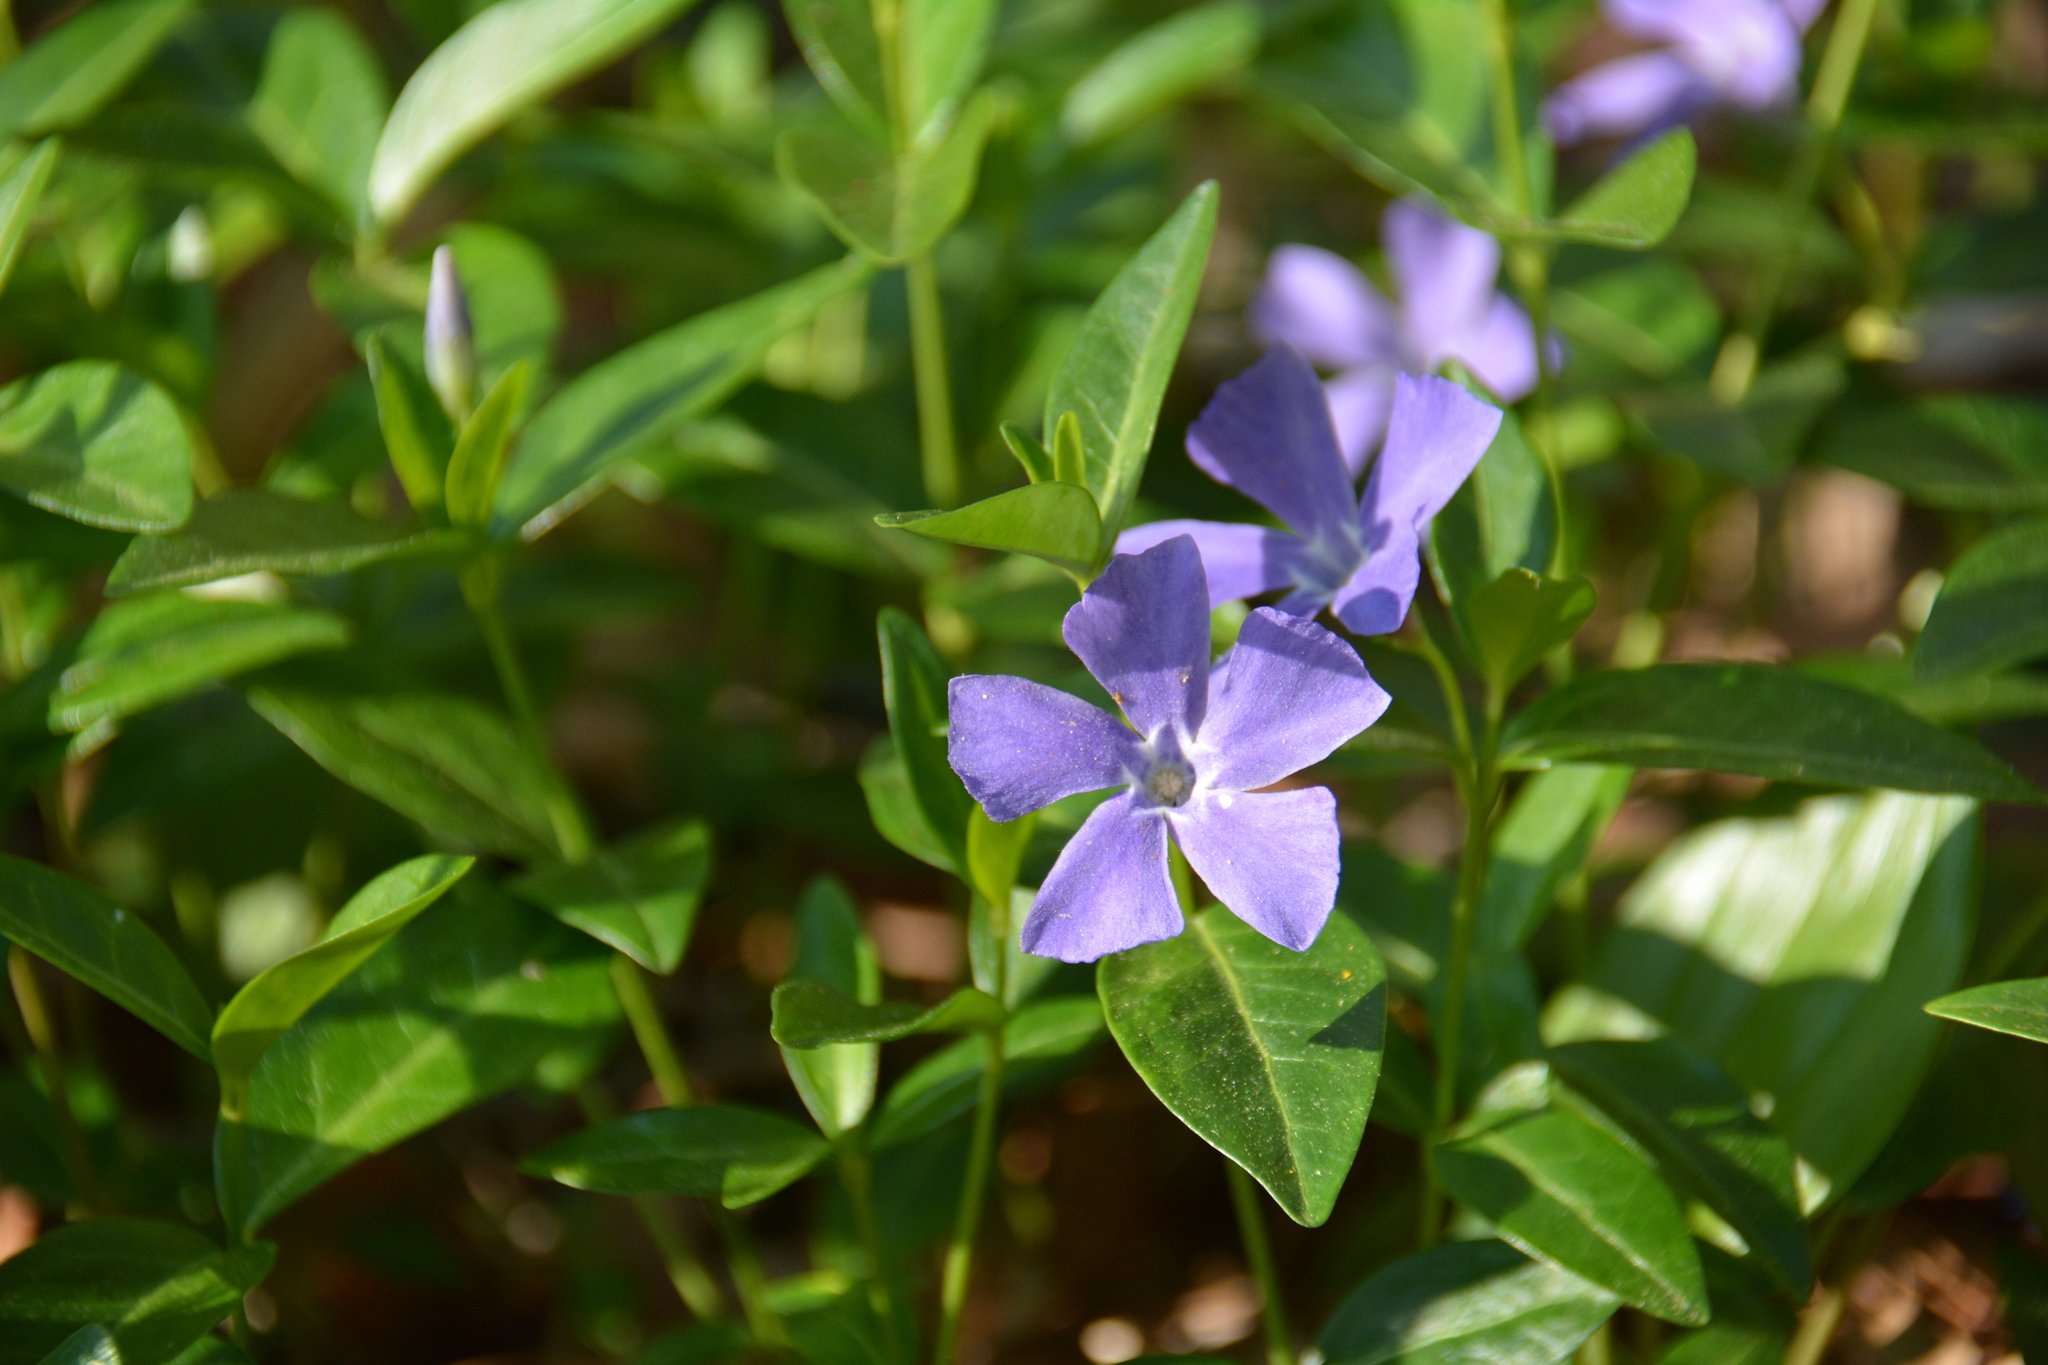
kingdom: Plantae
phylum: Tracheophyta
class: Magnoliopsida
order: Gentianales
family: Apocynaceae
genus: Vinca
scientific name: Vinca minor
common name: Lesser periwinkle
